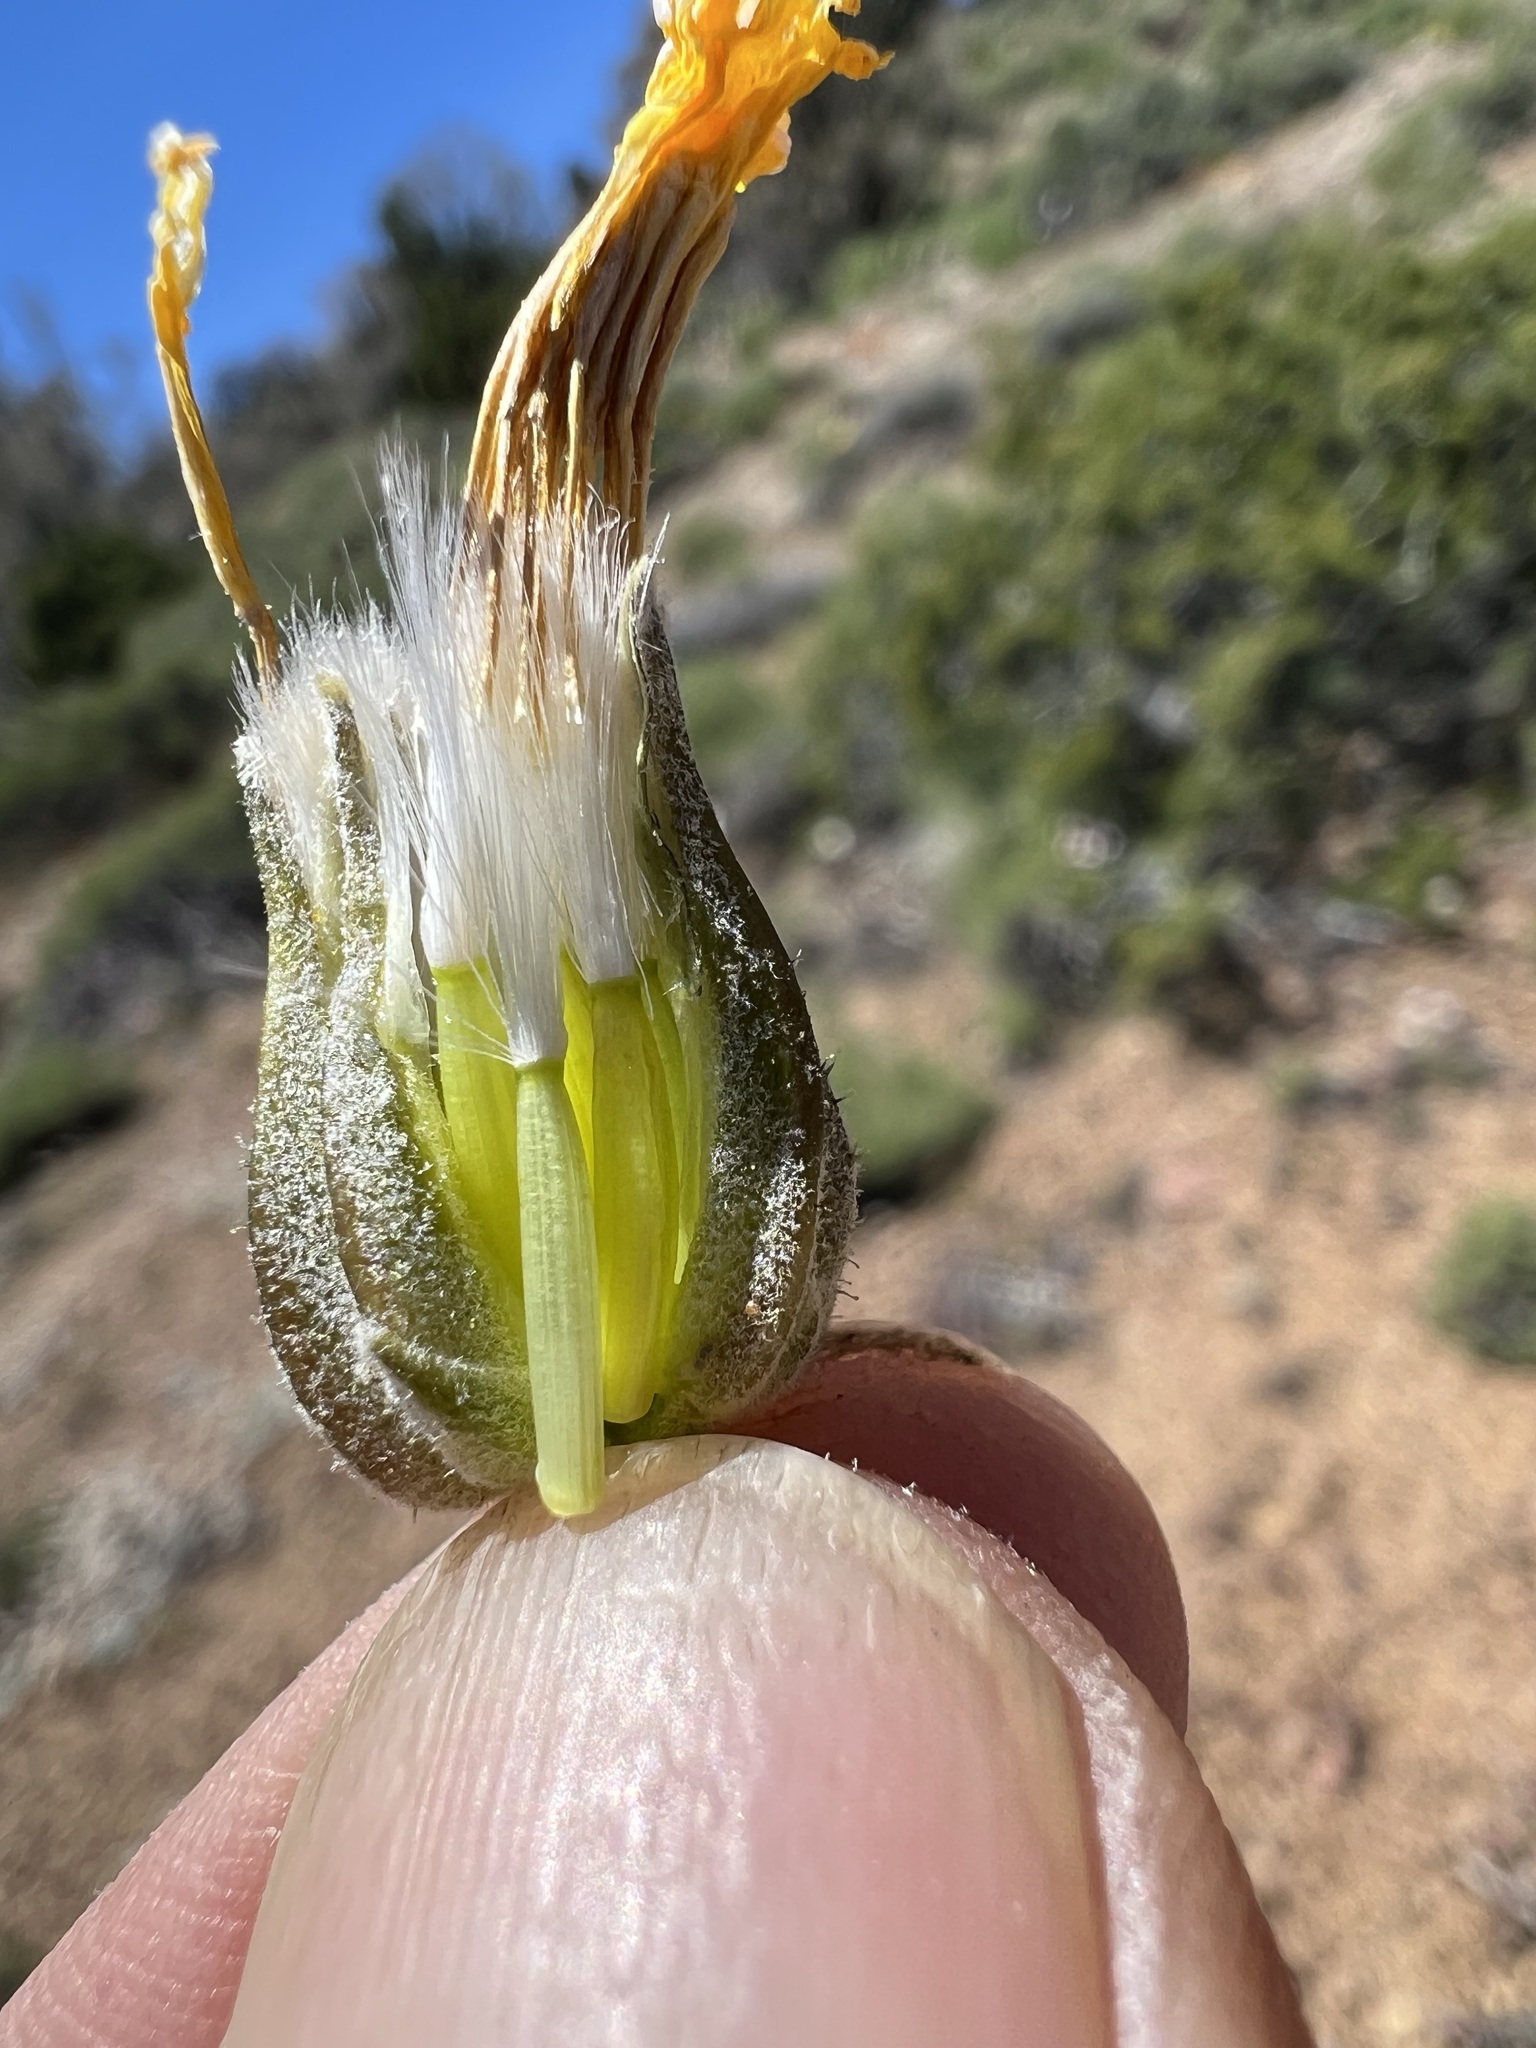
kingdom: Plantae
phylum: Tracheophyta
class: Magnoliopsida
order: Asterales
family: Asteraceae
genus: Crepis
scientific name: Crepis occidentalis
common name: Gray hawk's-beard
